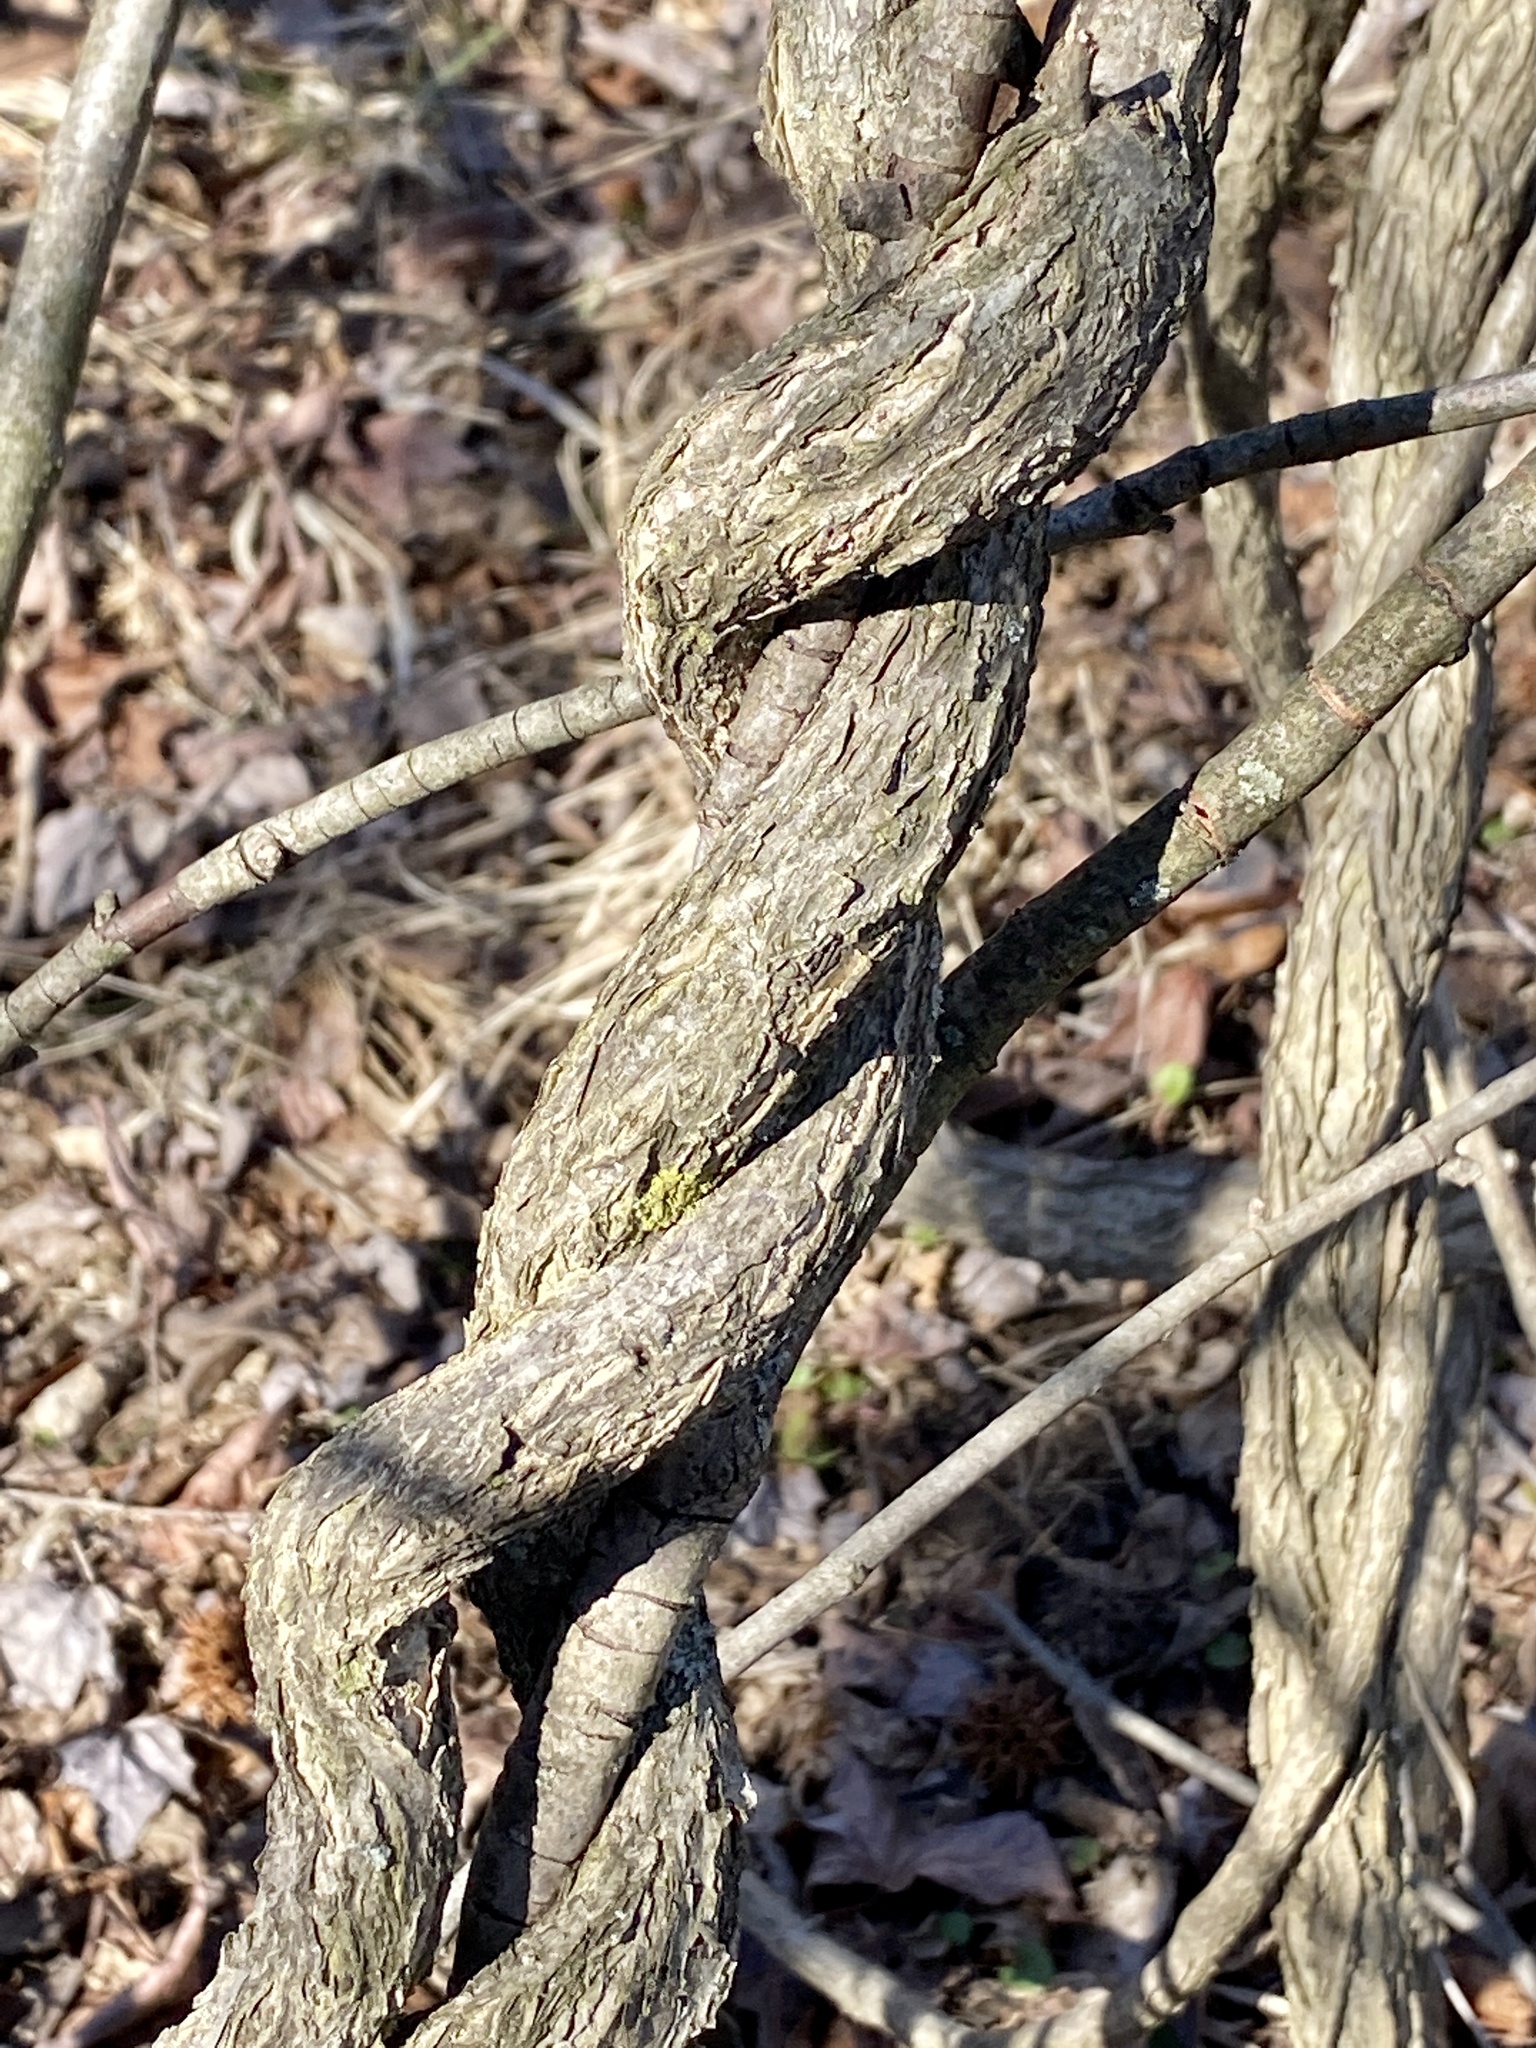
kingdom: Plantae
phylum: Tracheophyta
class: Magnoliopsida
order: Celastrales
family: Celastraceae
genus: Celastrus
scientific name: Celastrus orbiculatus
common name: Oriental bittersweet
